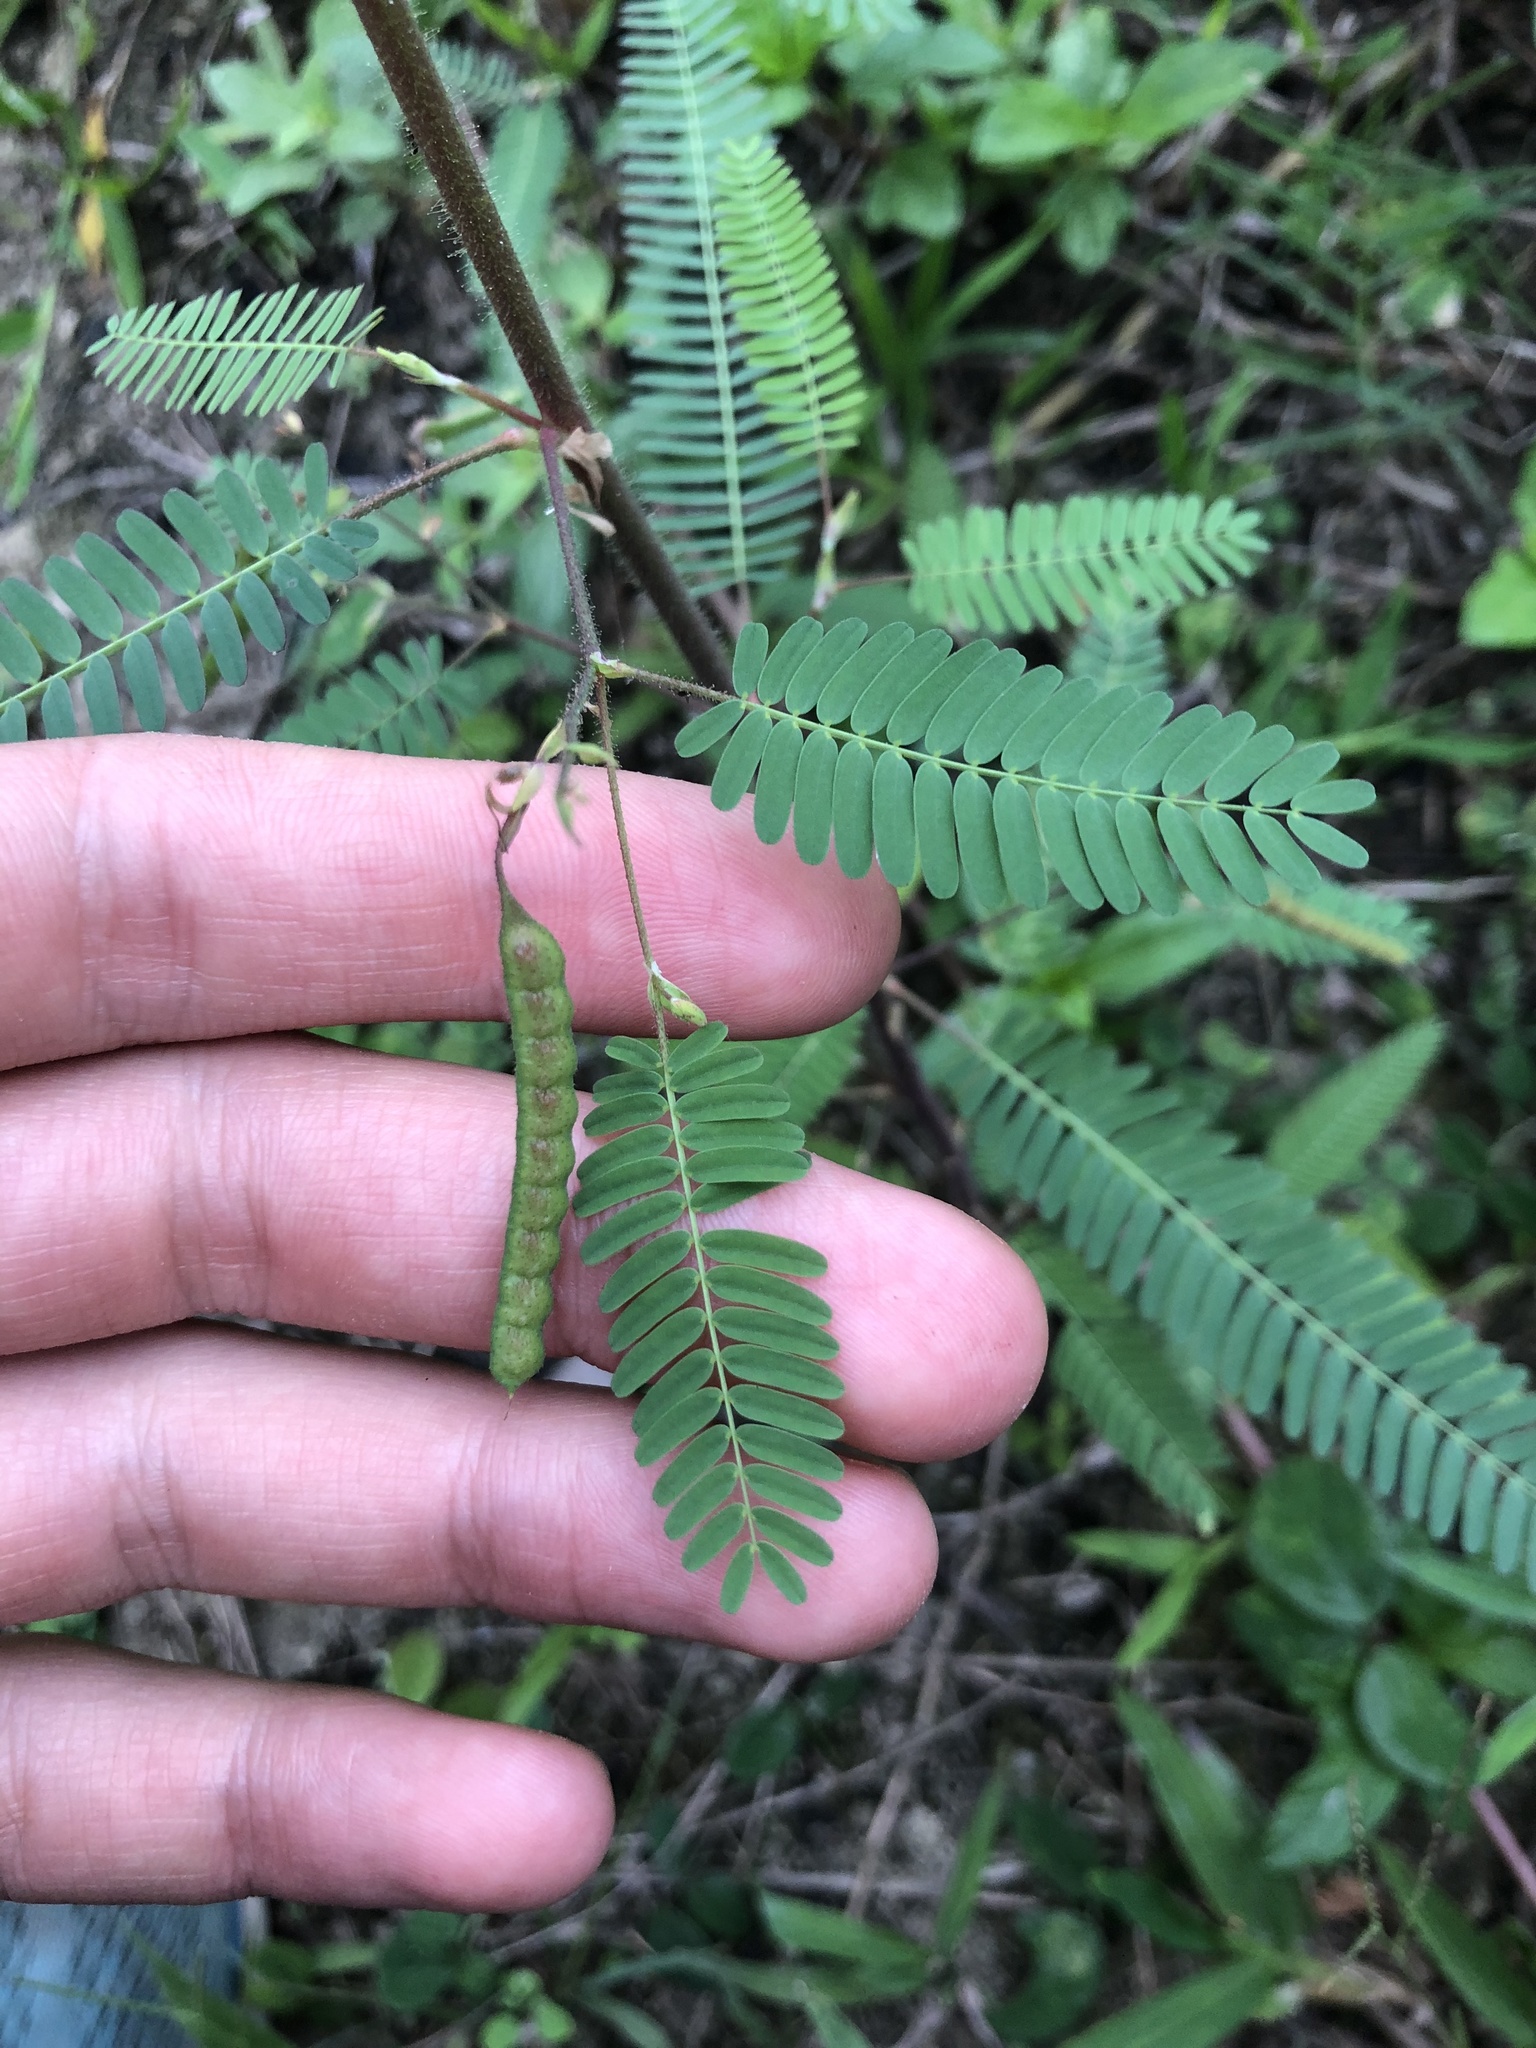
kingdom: Plantae
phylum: Tracheophyta
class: Magnoliopsida
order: Fabales
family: Fabaceae
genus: Ctenodon
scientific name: Ctenodon tumbezensis
